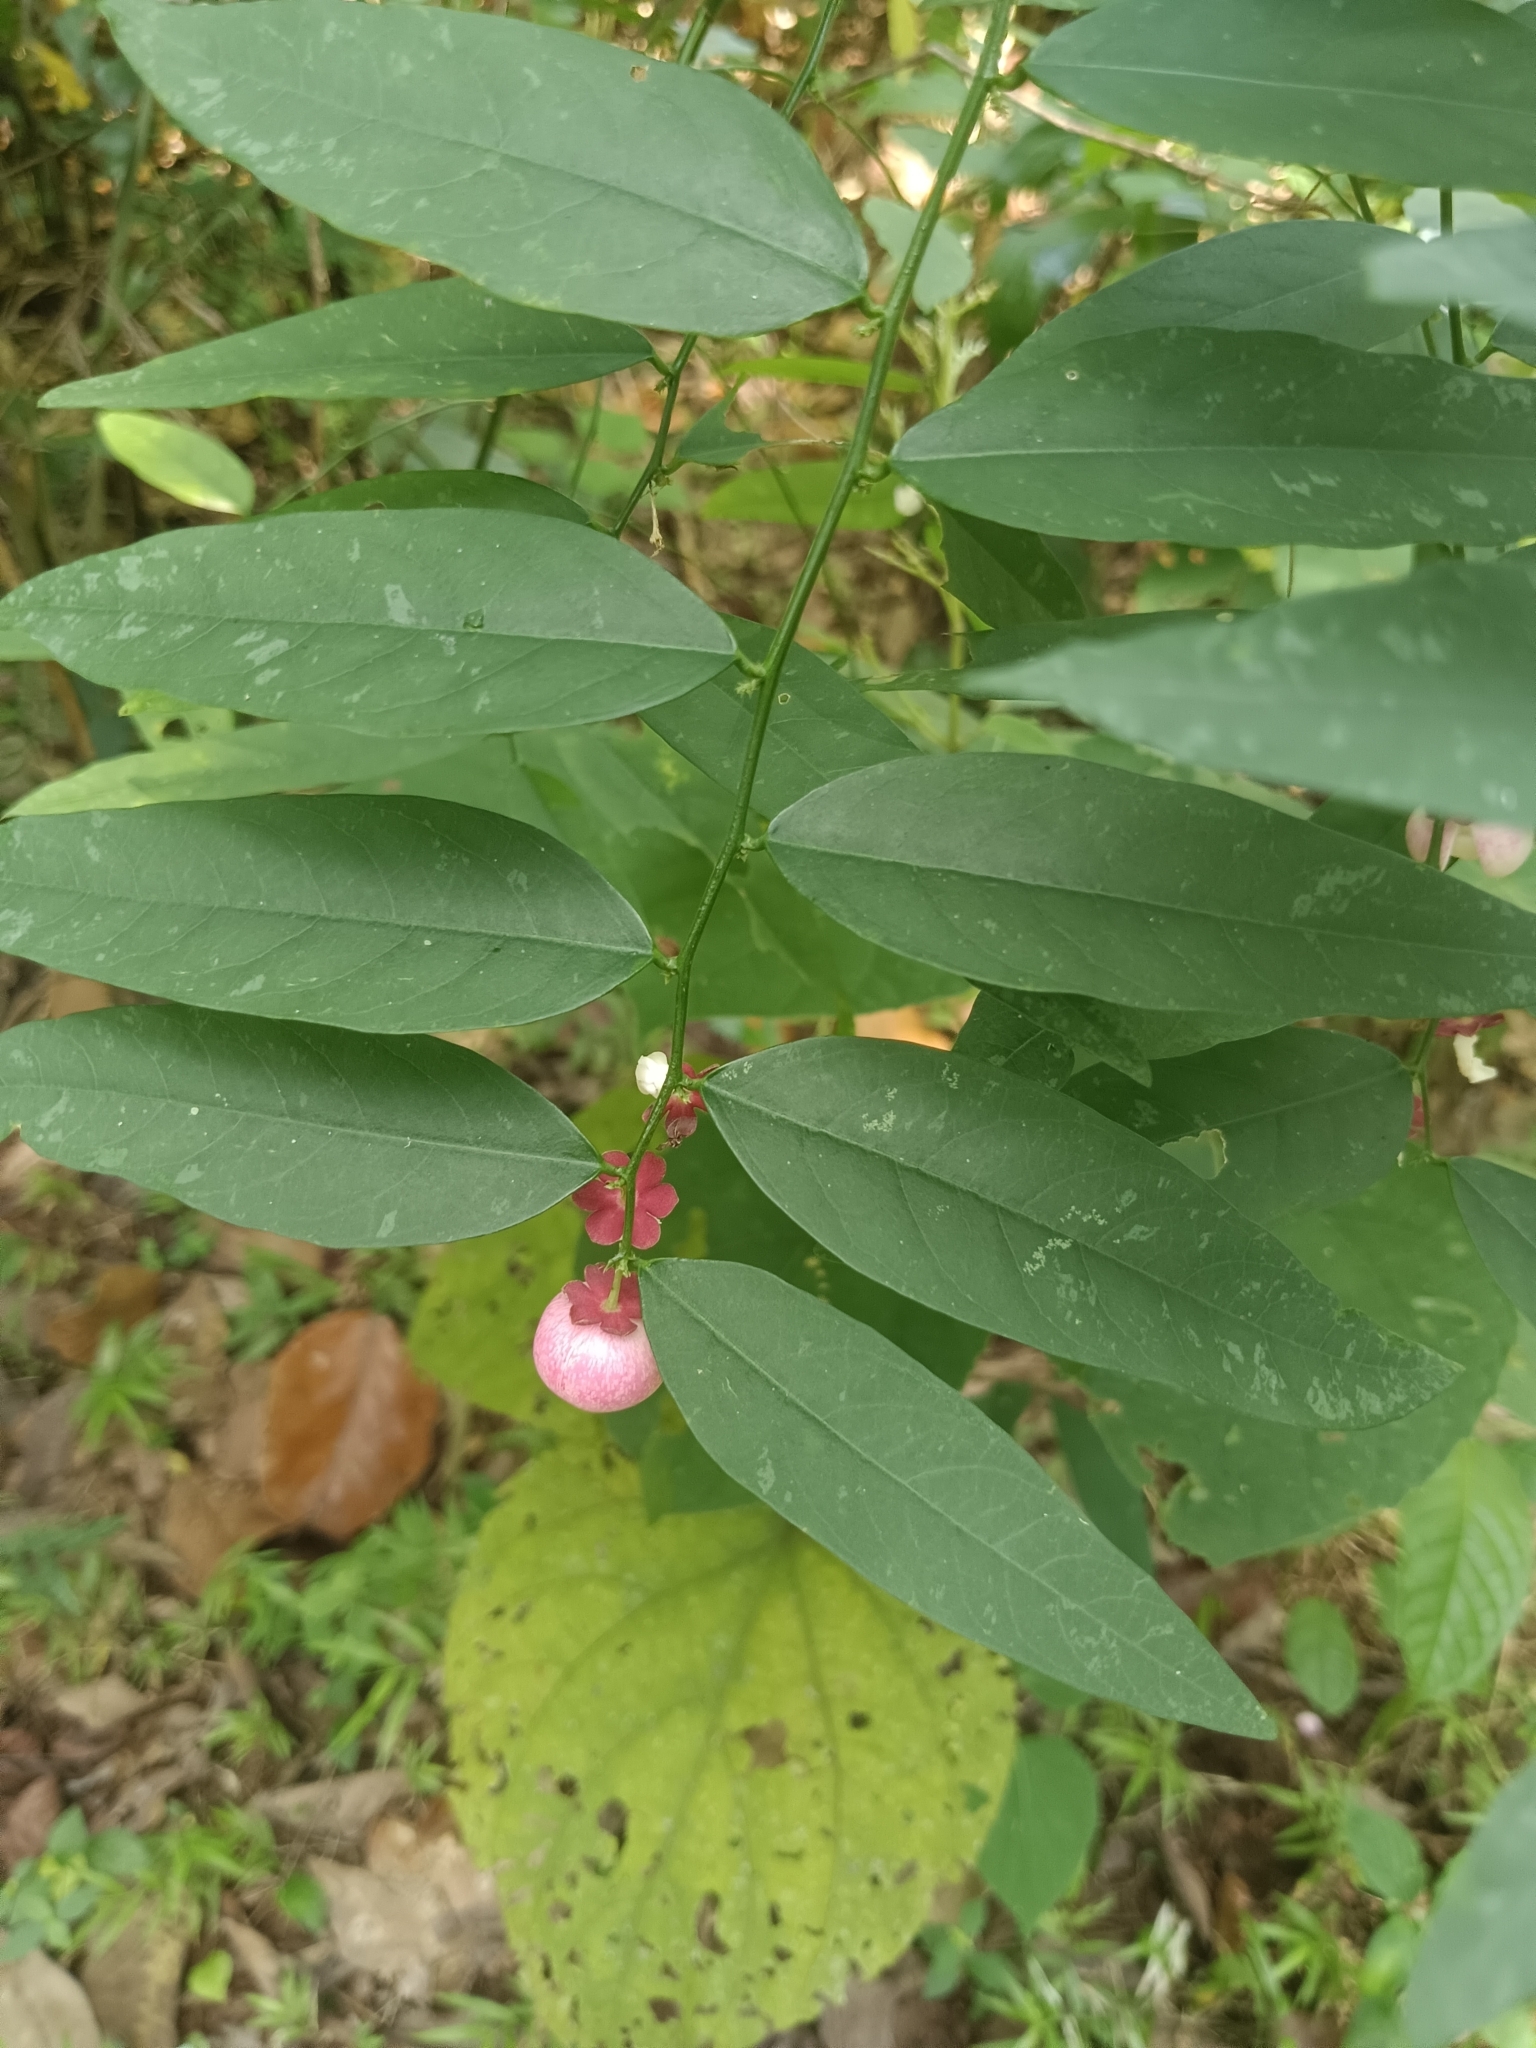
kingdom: Plantae
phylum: Tracheophyta
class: Magnoliopsida
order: Malpighiales
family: Phyllanthaceae
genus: Breynia
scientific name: Breynia androgyna
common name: Star gooseberry
